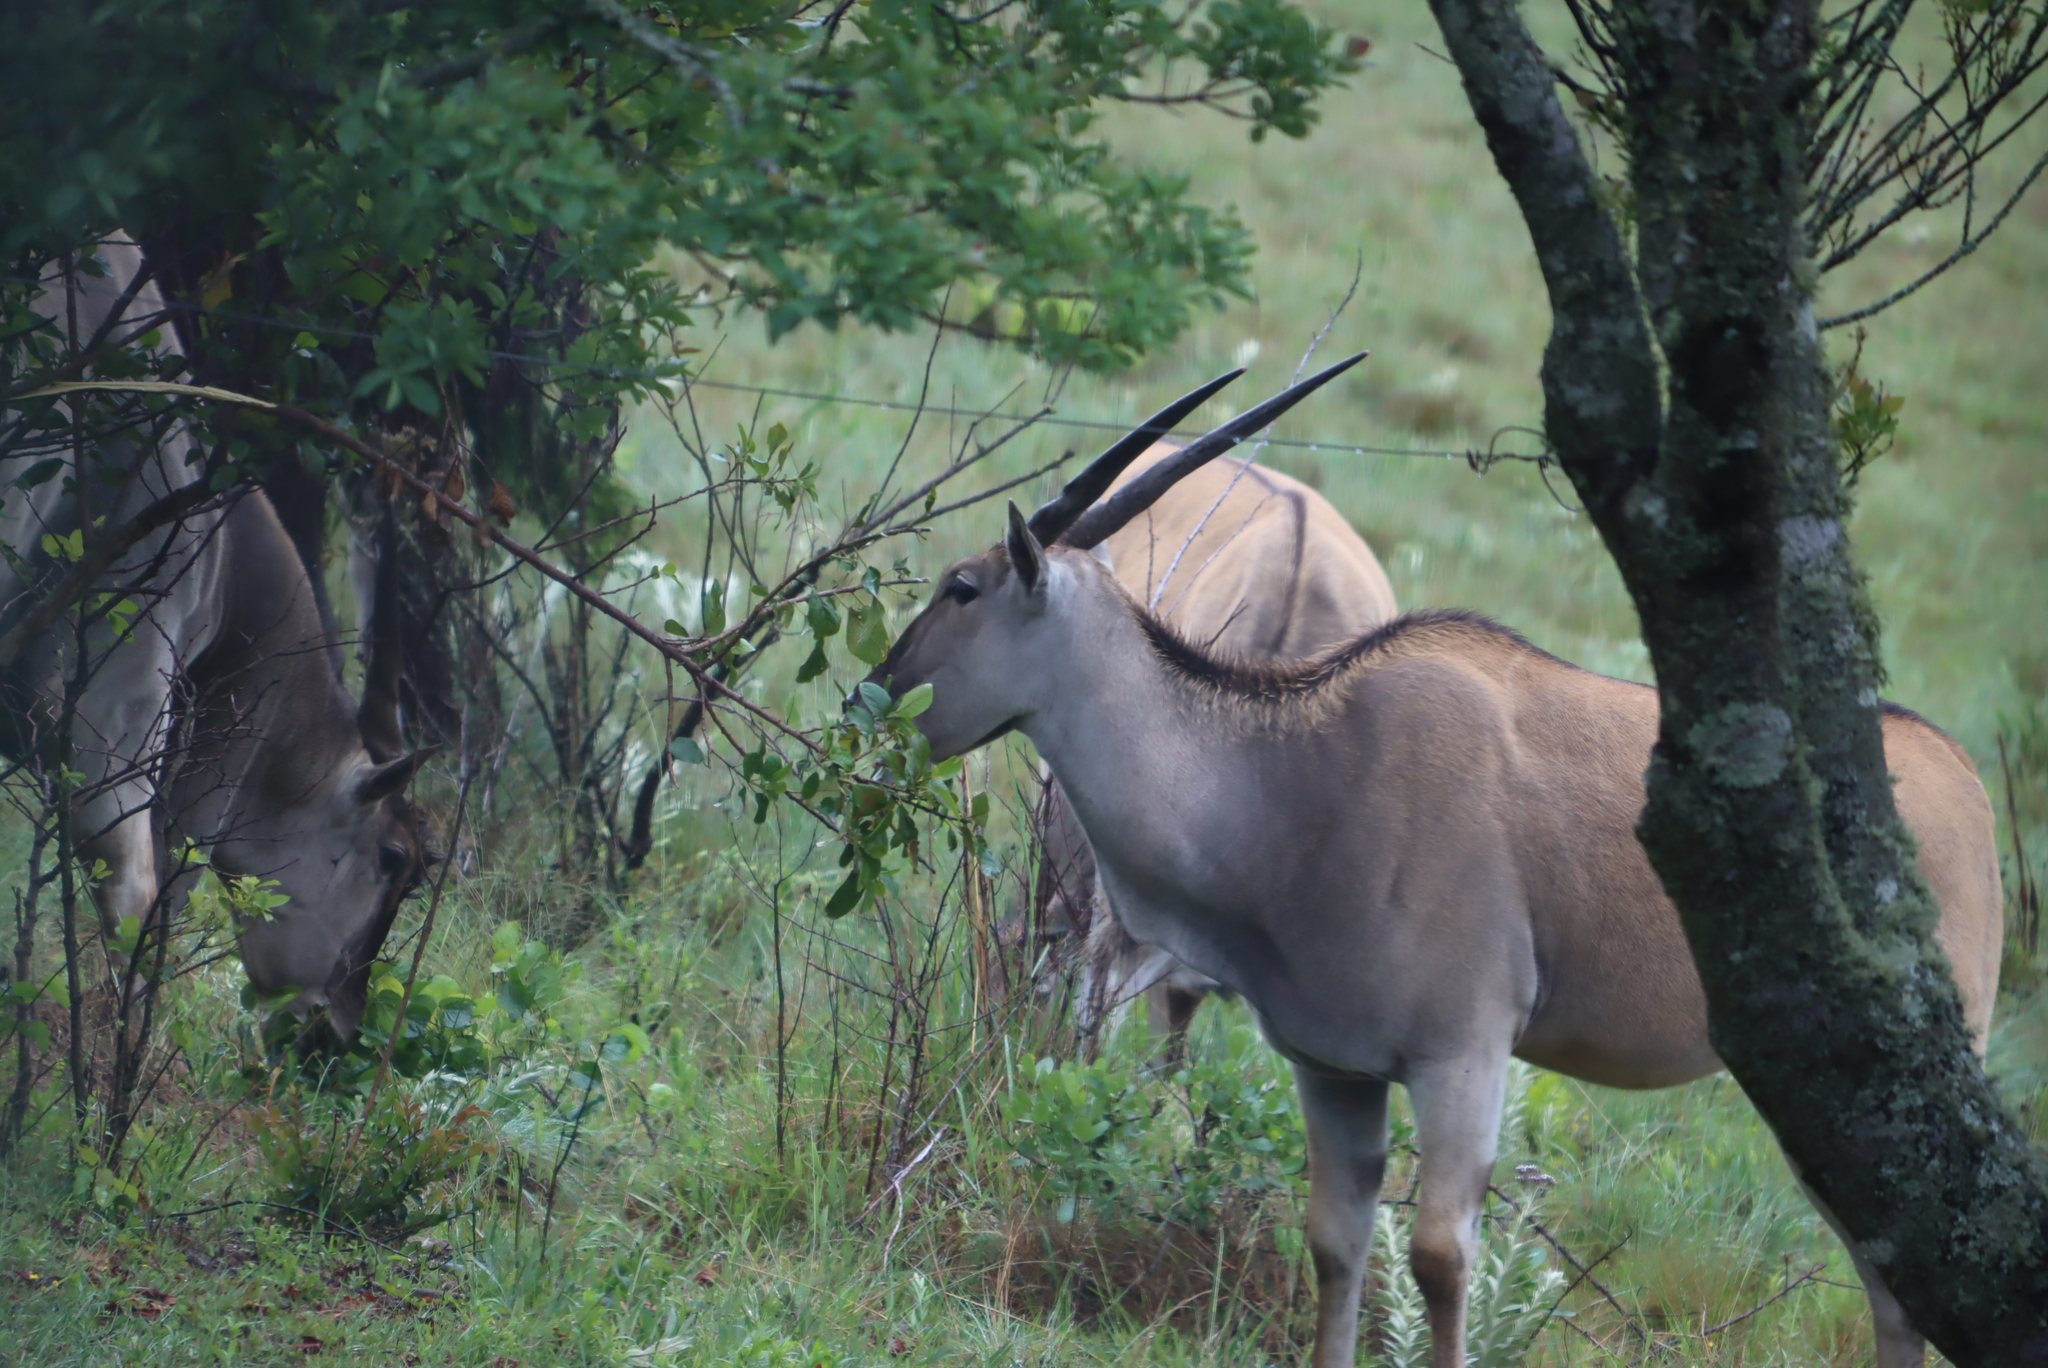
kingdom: Animalia
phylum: Chordata
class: Mammalia
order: Artiodactyla
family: Bovidae
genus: Taurotragus
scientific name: Taurotragus oryx
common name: Common eland
